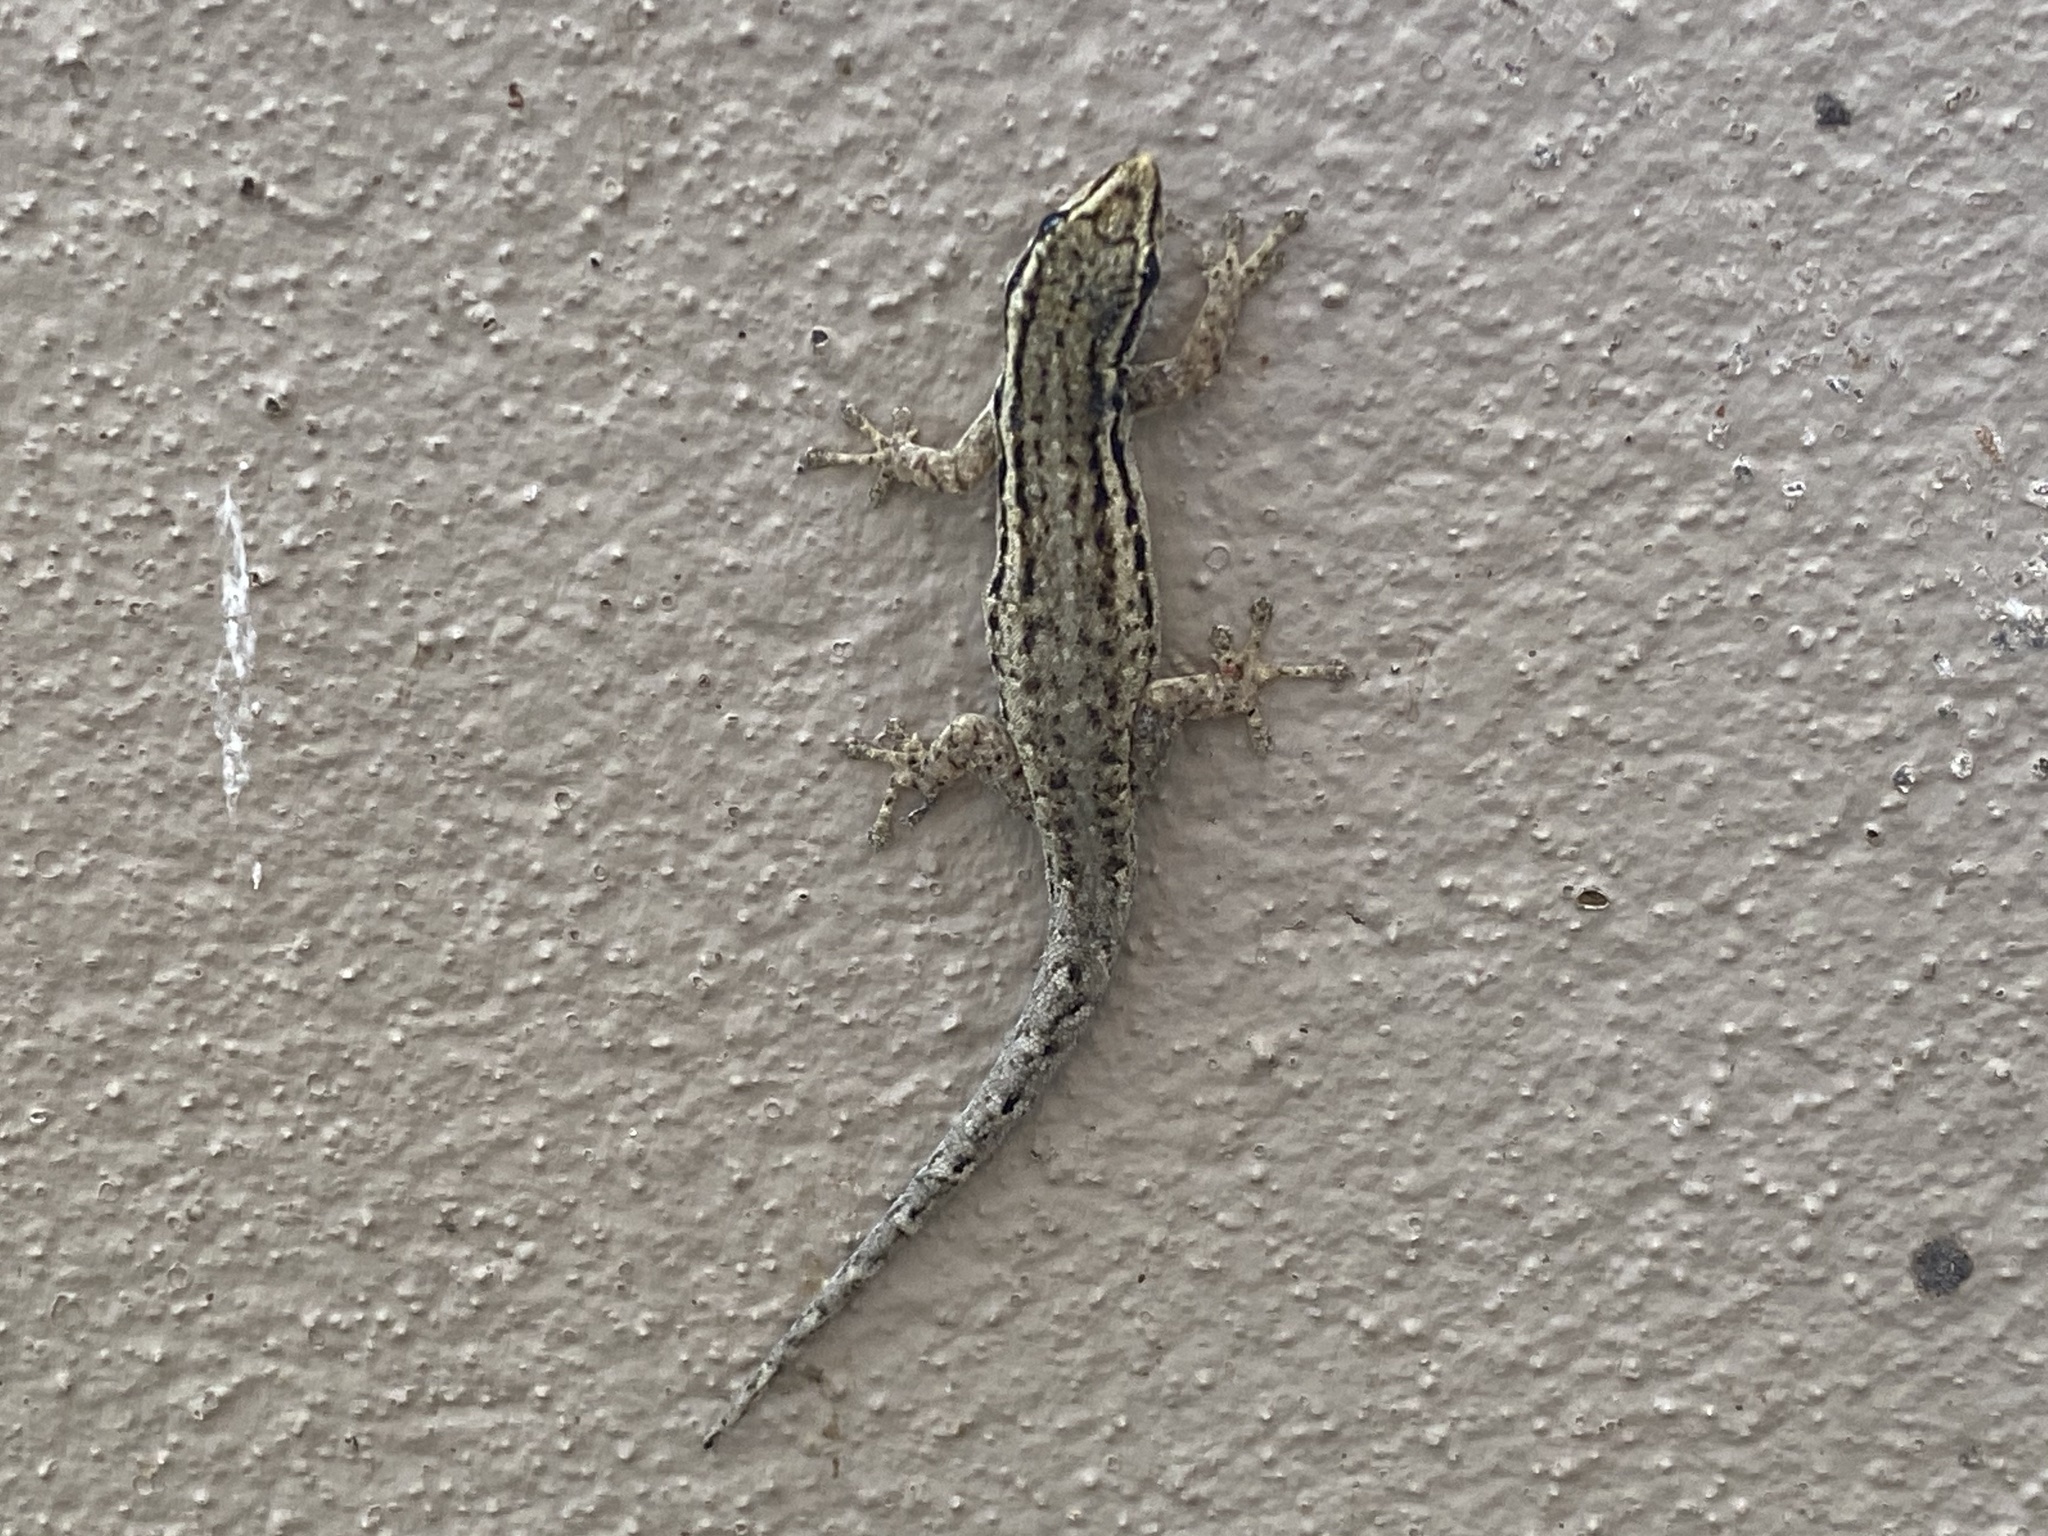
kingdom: Animalia
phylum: Chordata
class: Squamata
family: Gekkonidae
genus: Lygodactylus
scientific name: Lygodactylus capensis
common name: Cape dwarf gecko
